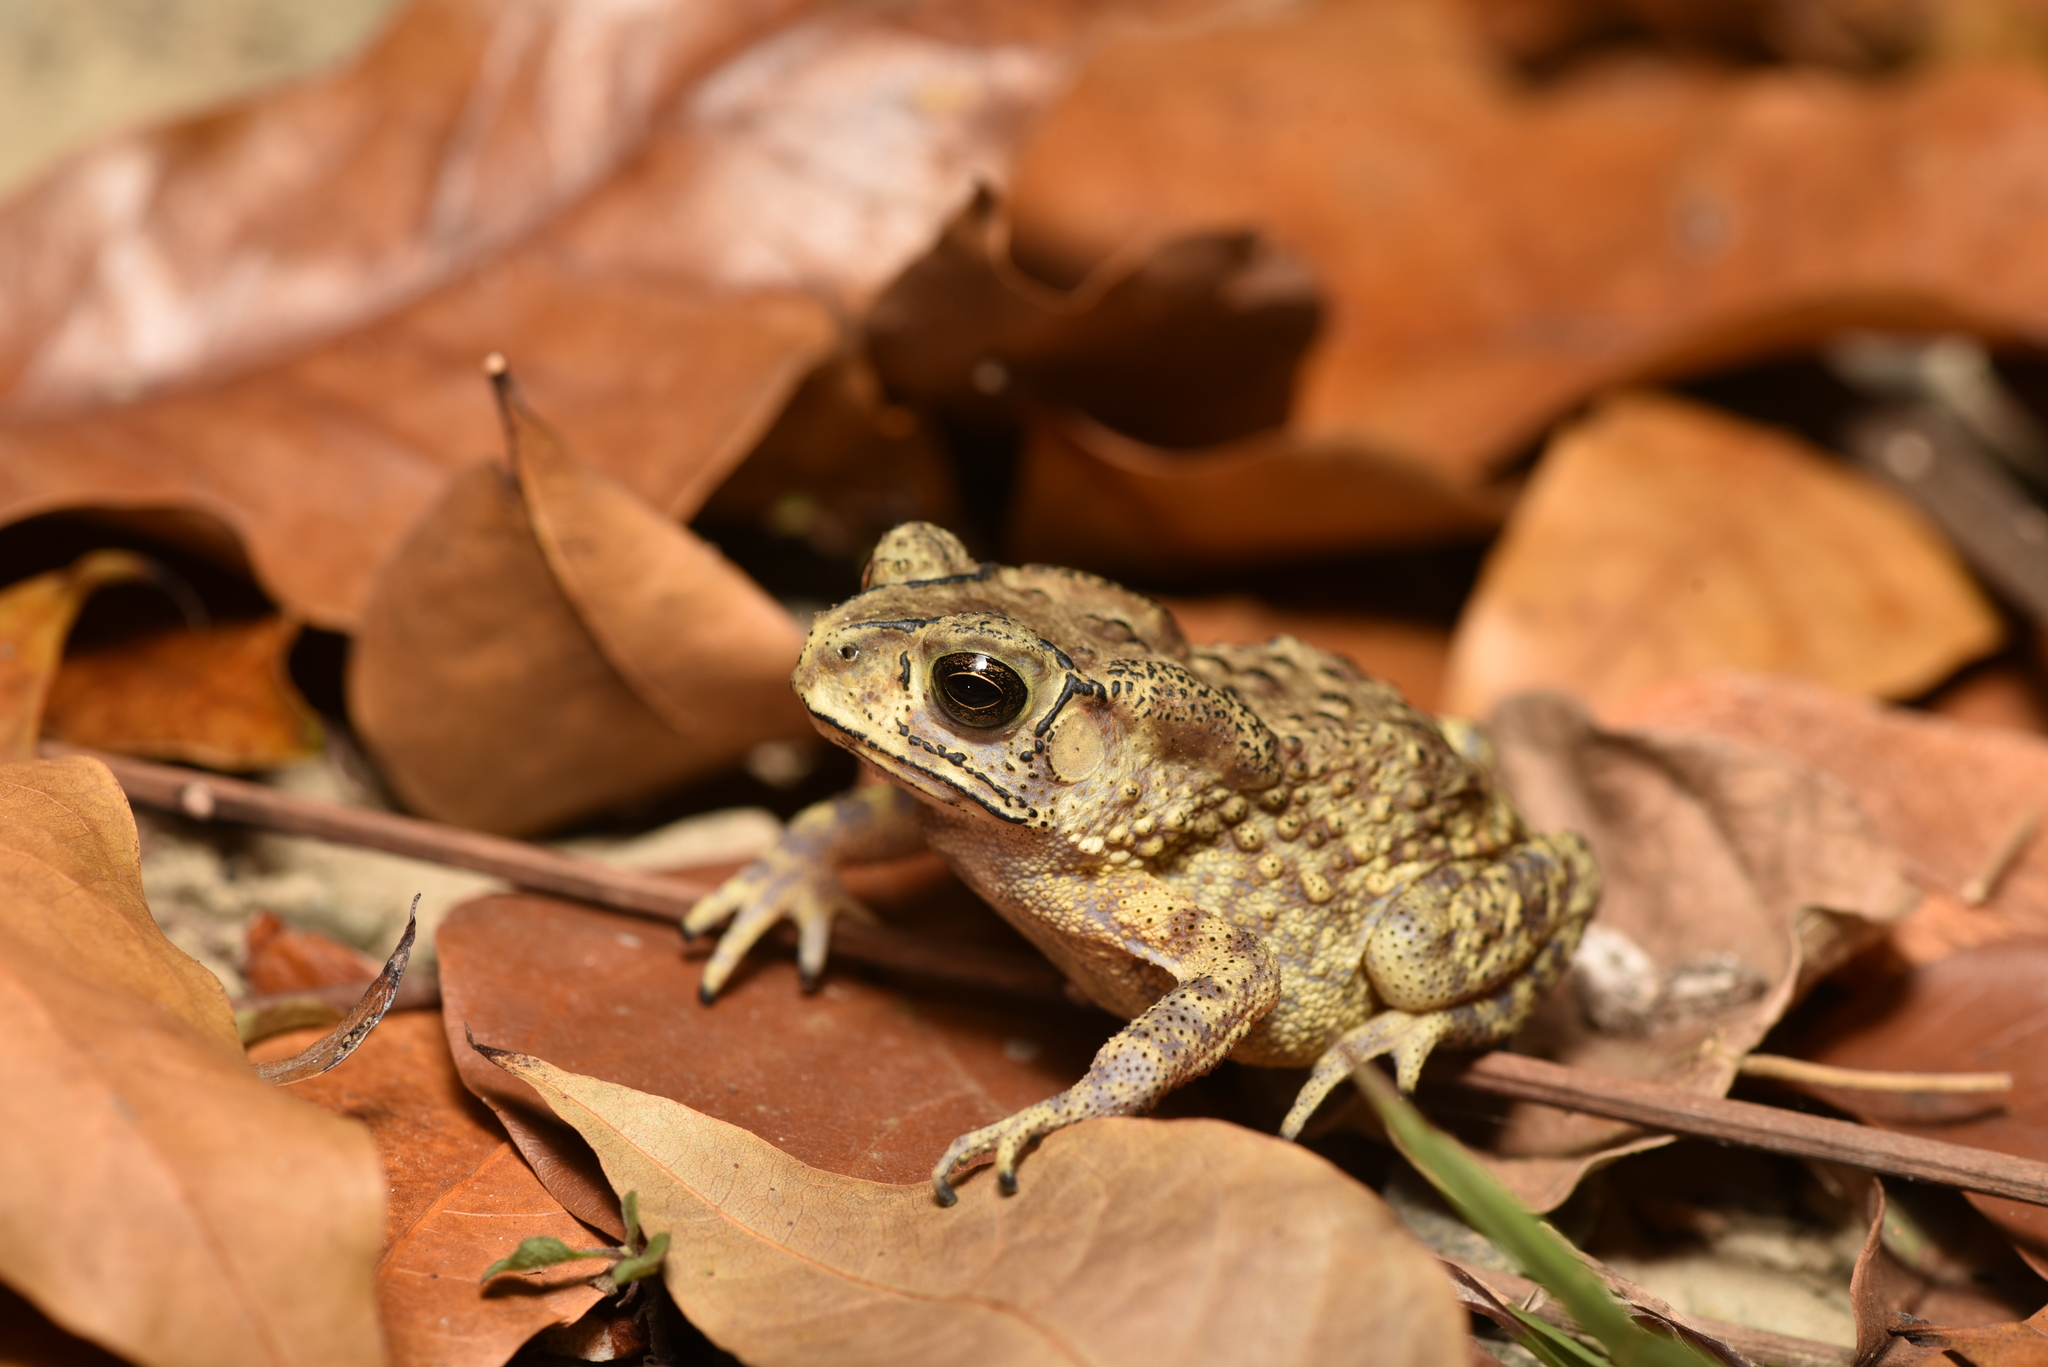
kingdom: Animalia
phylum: Chordata
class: Amphibia
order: Anura
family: Bufonidae
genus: Duttaphrynus
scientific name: Duttaphrynus melanostictus
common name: Common sunda toad
